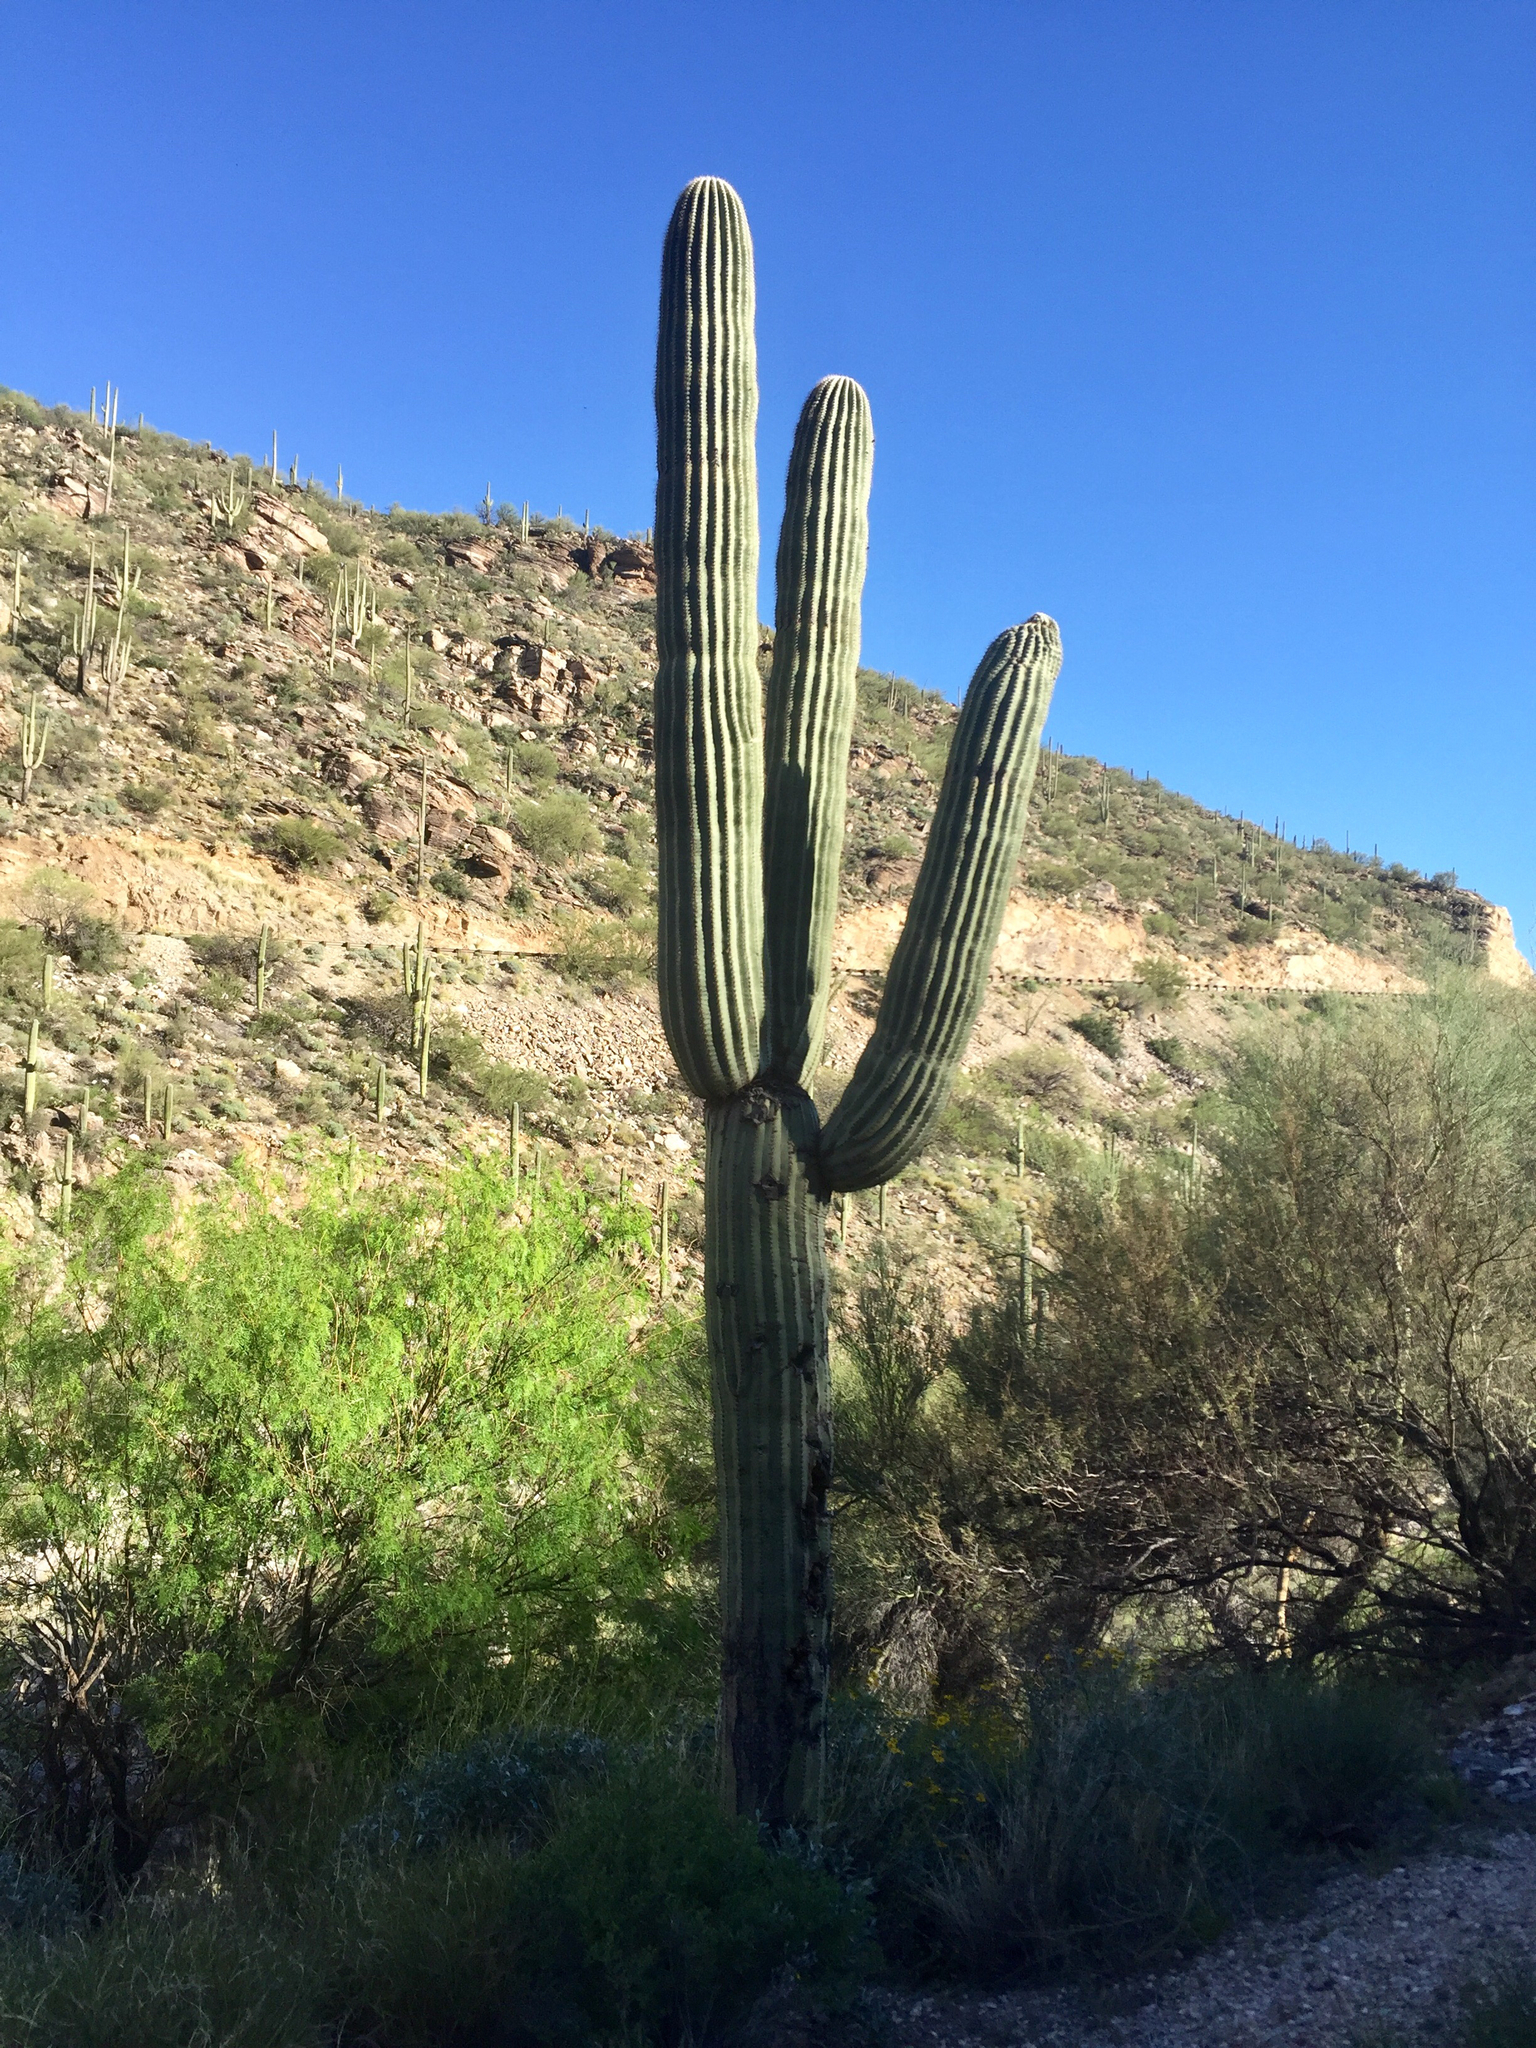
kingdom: Plantae
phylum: Tracheophyta
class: Magnoliopsida
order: Caryophyllales
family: Cactaceae
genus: Carnegiea
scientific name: Carnegiea gigantea
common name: Saguaro
